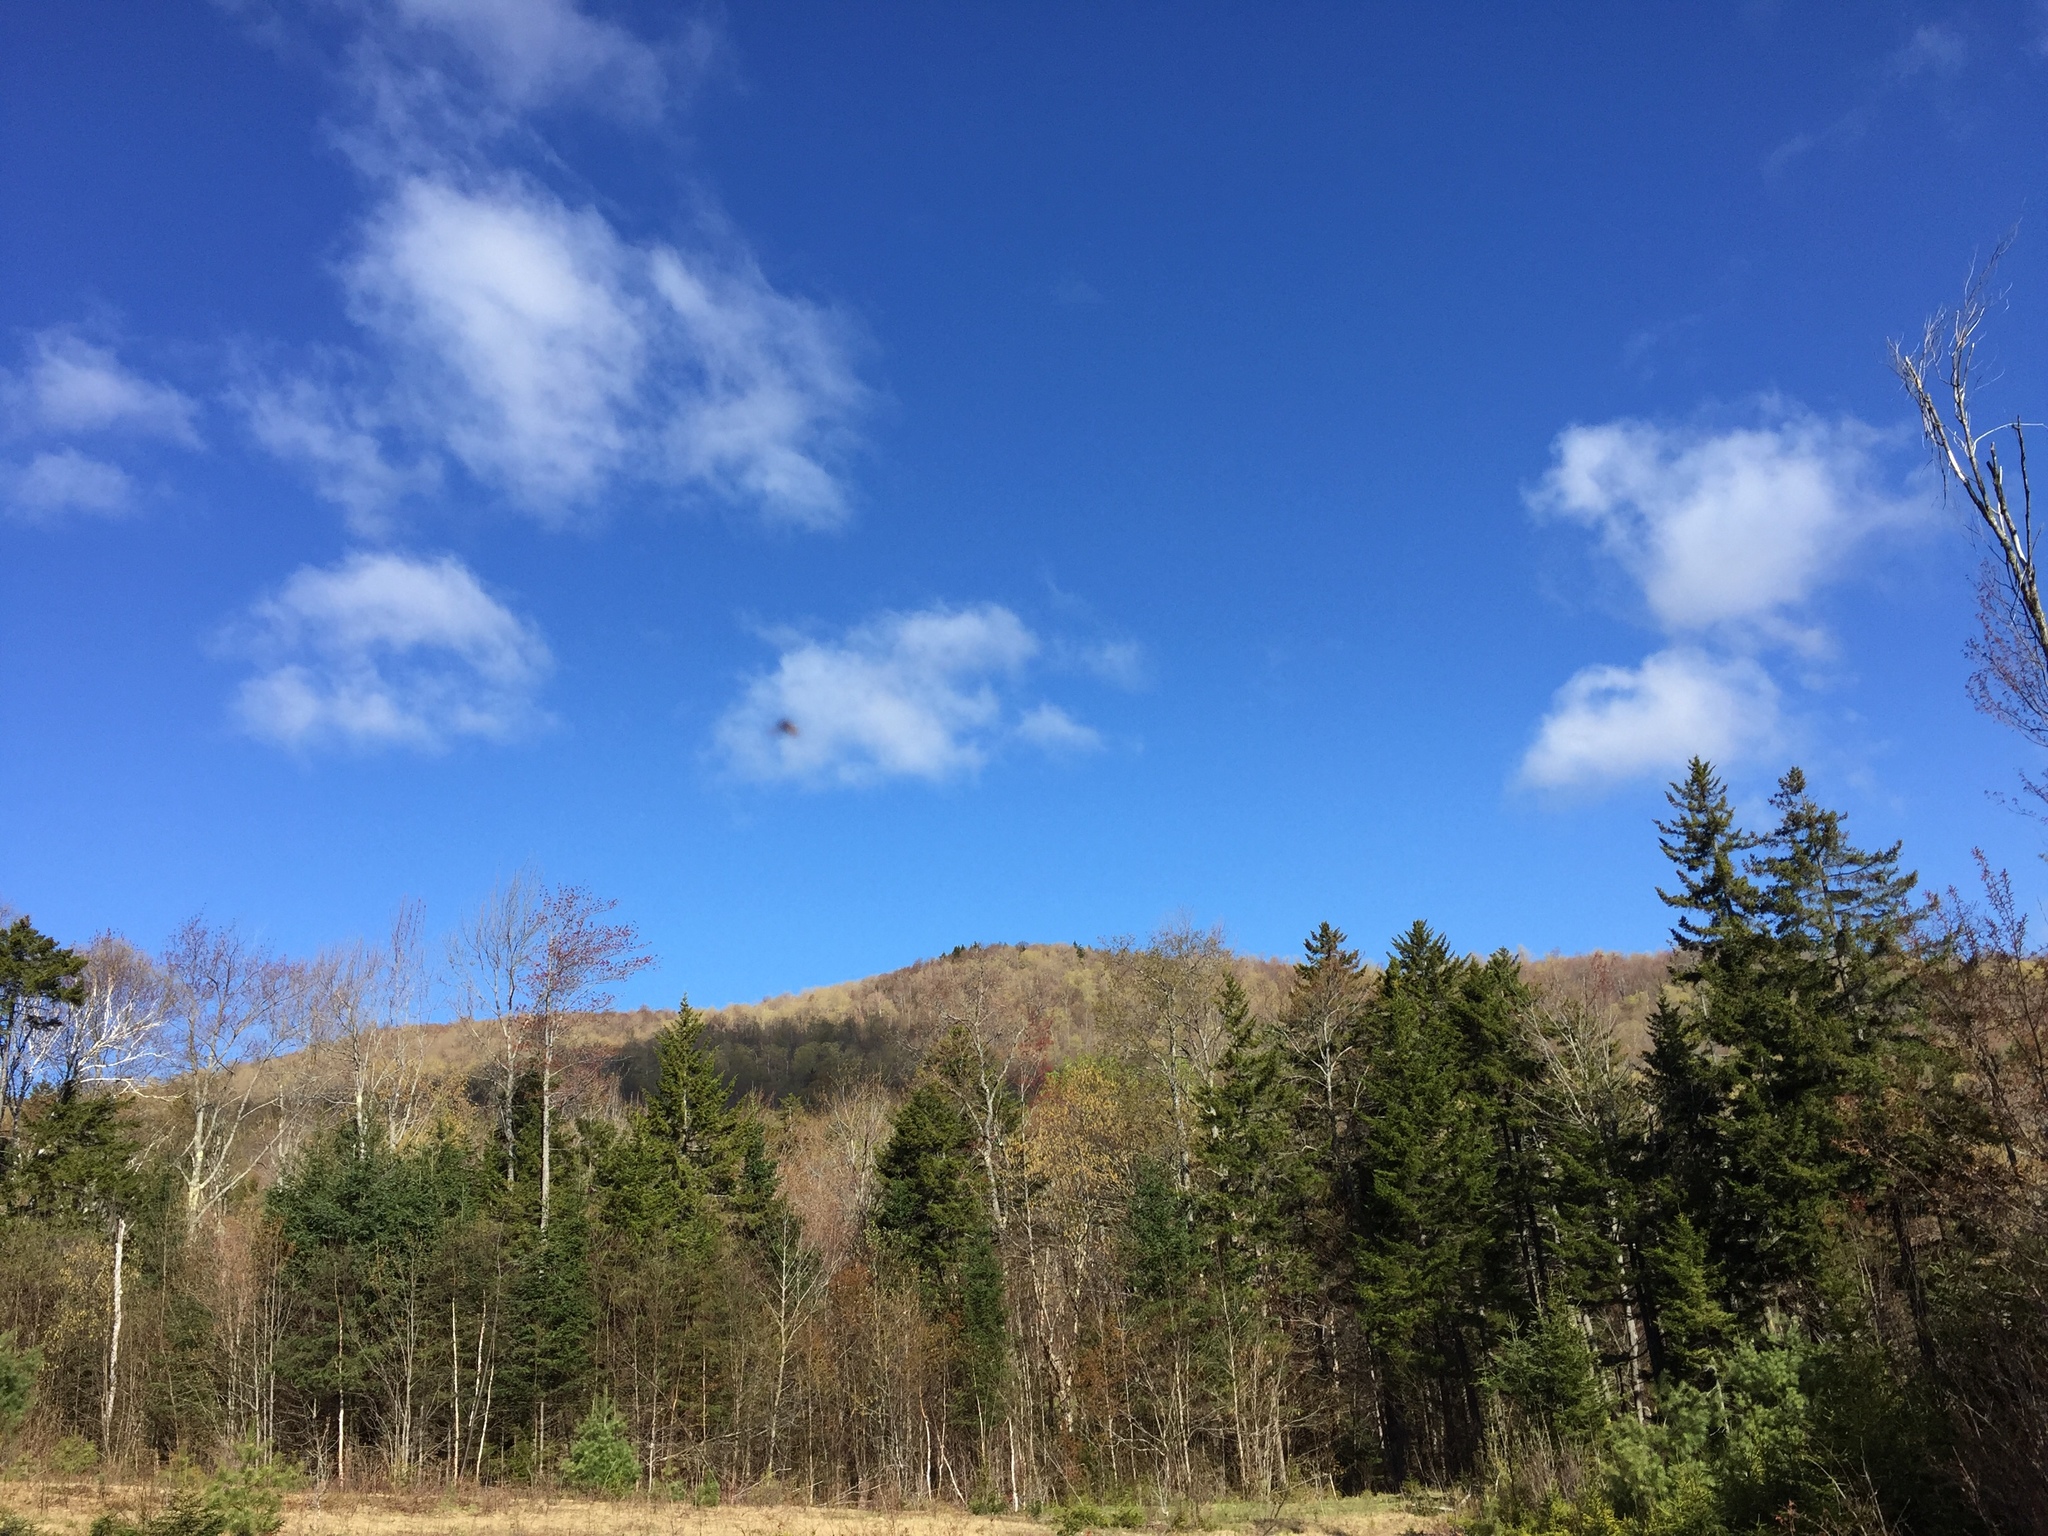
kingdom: Plantae
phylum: Tracheophyta
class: Pinopsida
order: Pinales
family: Pinaceae
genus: Picea
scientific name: Picea rubens
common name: Red spruce
